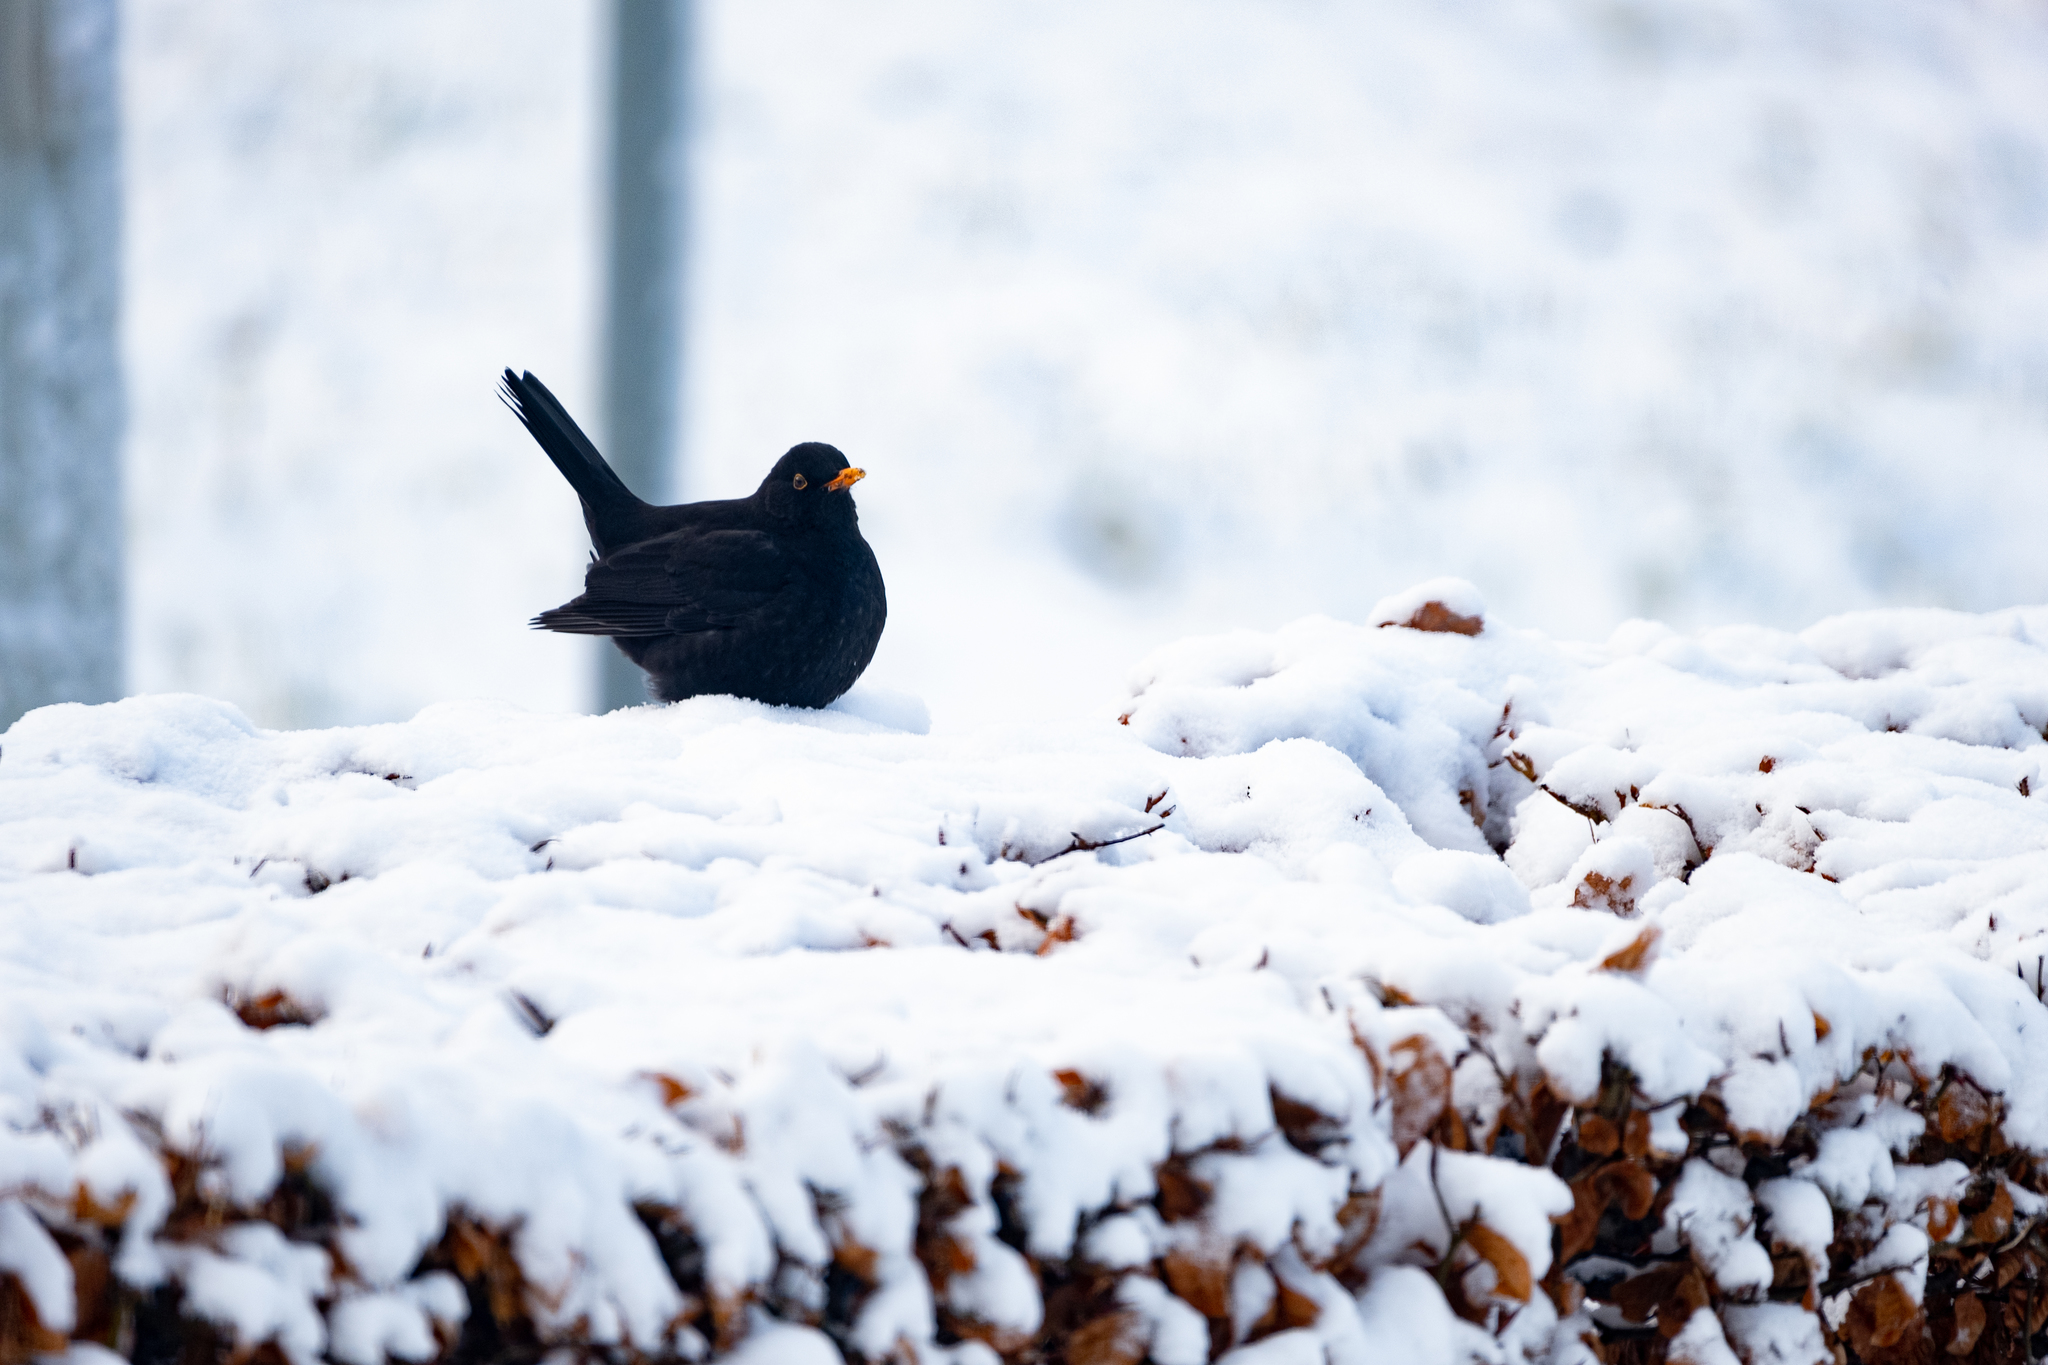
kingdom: Animalia
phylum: Chordata
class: Aves
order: Passeriformes
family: Turdidae
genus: Turdus
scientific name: Turdus merula
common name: Common blackbird
